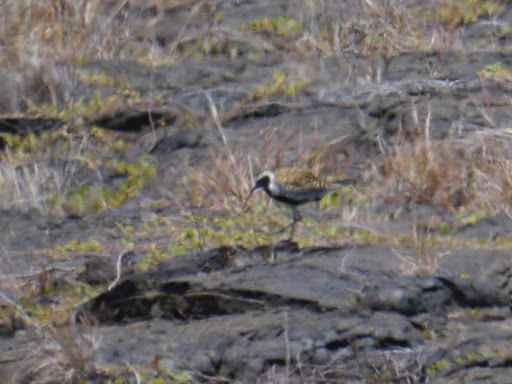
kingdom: Animalia
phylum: Chordata
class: Aves
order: Charadriiformes
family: Charadriidae
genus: Pluvialis
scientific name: Pluvialis fulva
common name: Pacific golden plover
